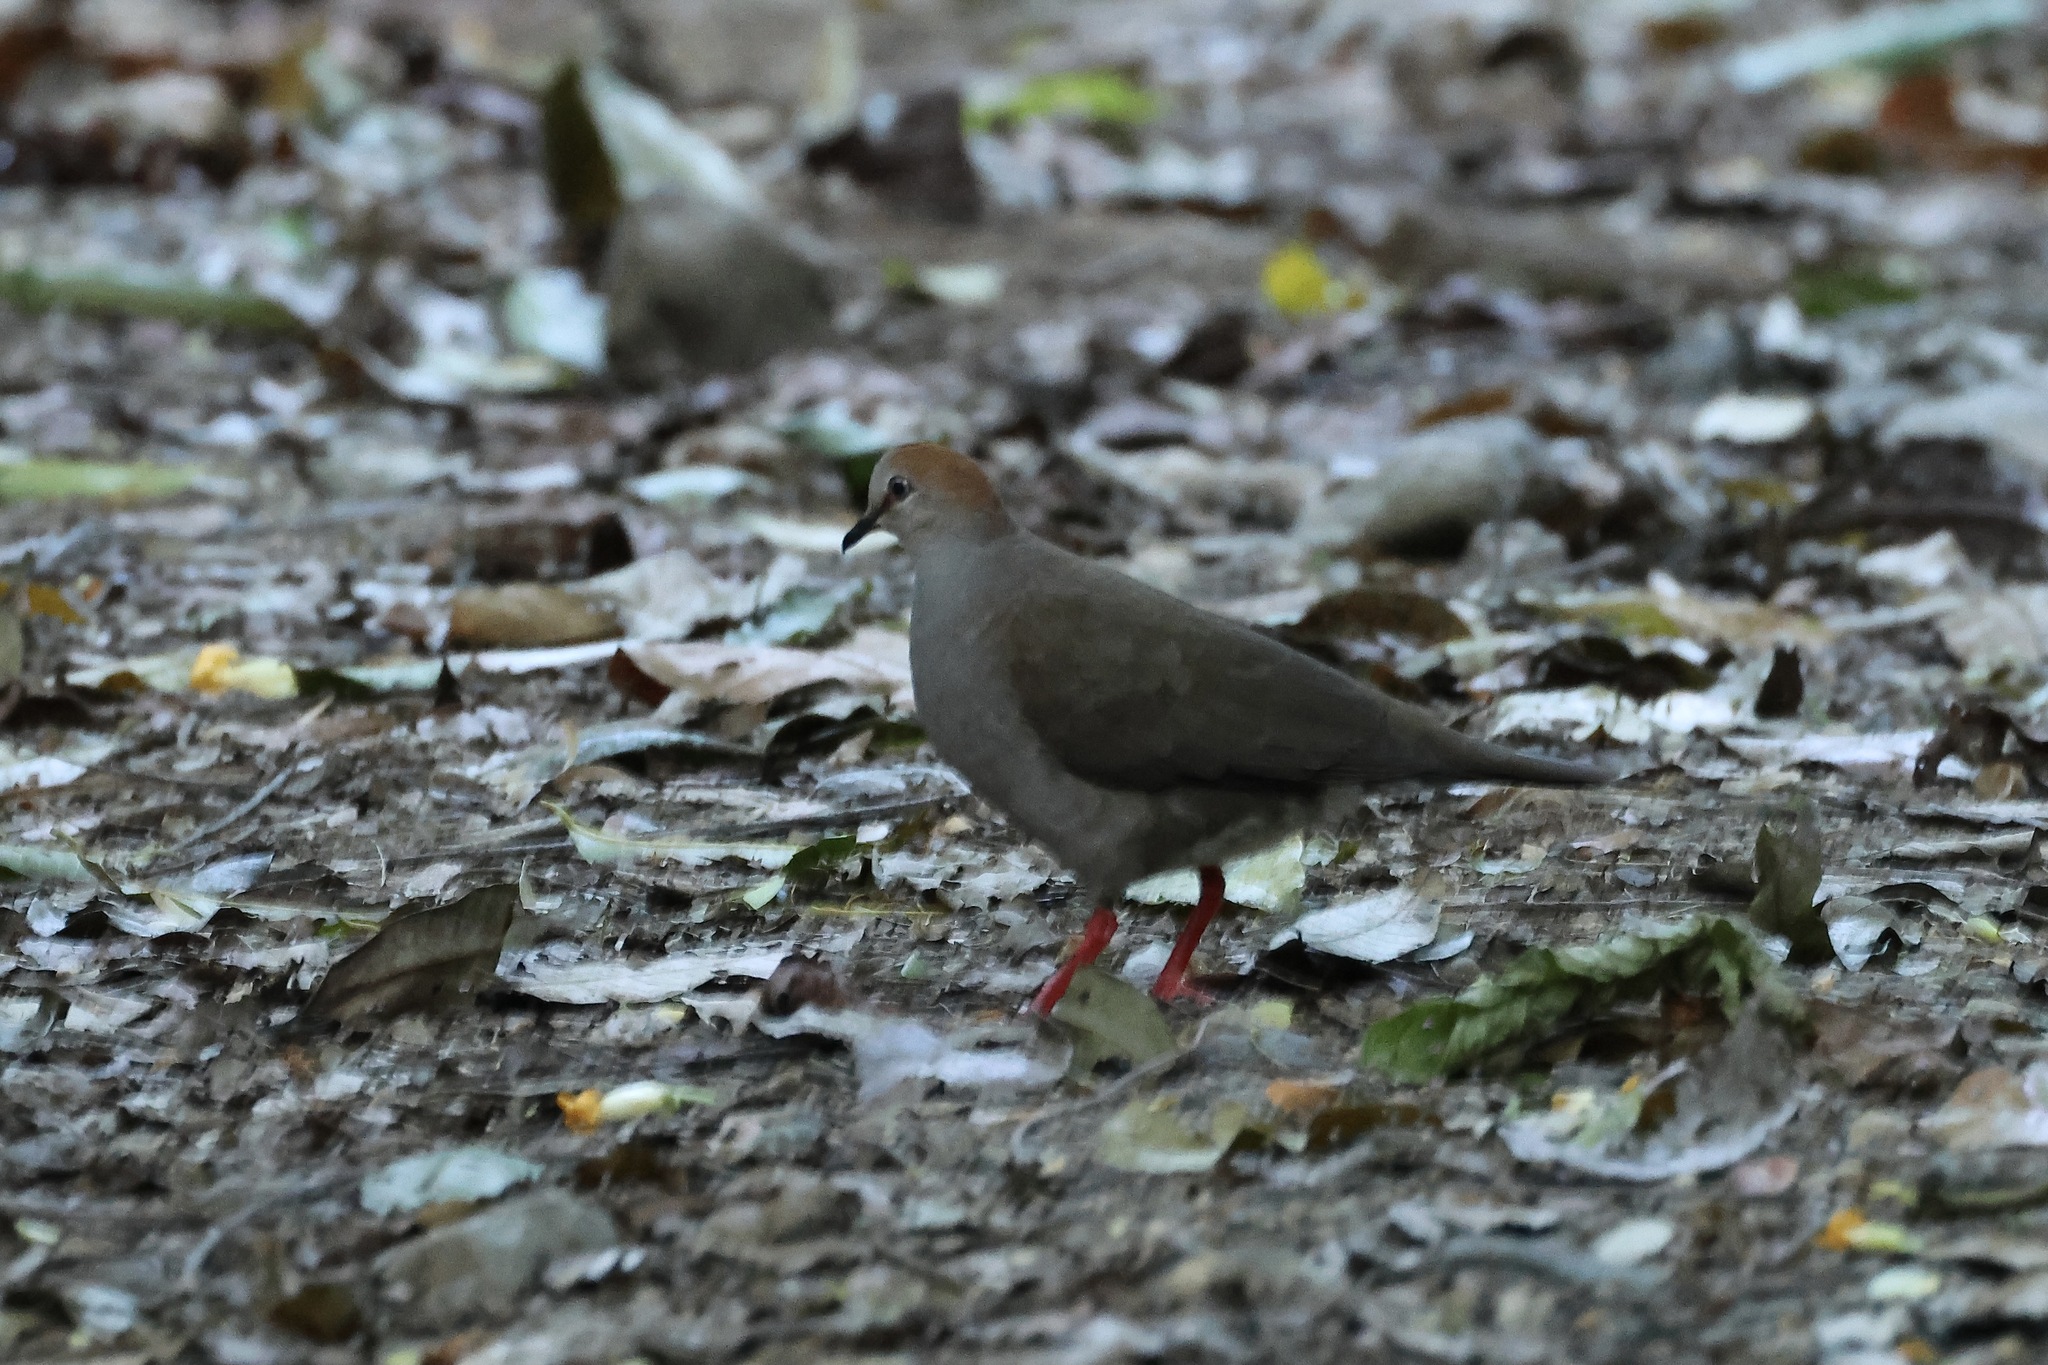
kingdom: Animalia
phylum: Chordata
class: Aves
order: Columbiformes
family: Columbidae
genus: Leptotila
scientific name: Leptotila cassinii
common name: Grey-chested dove
